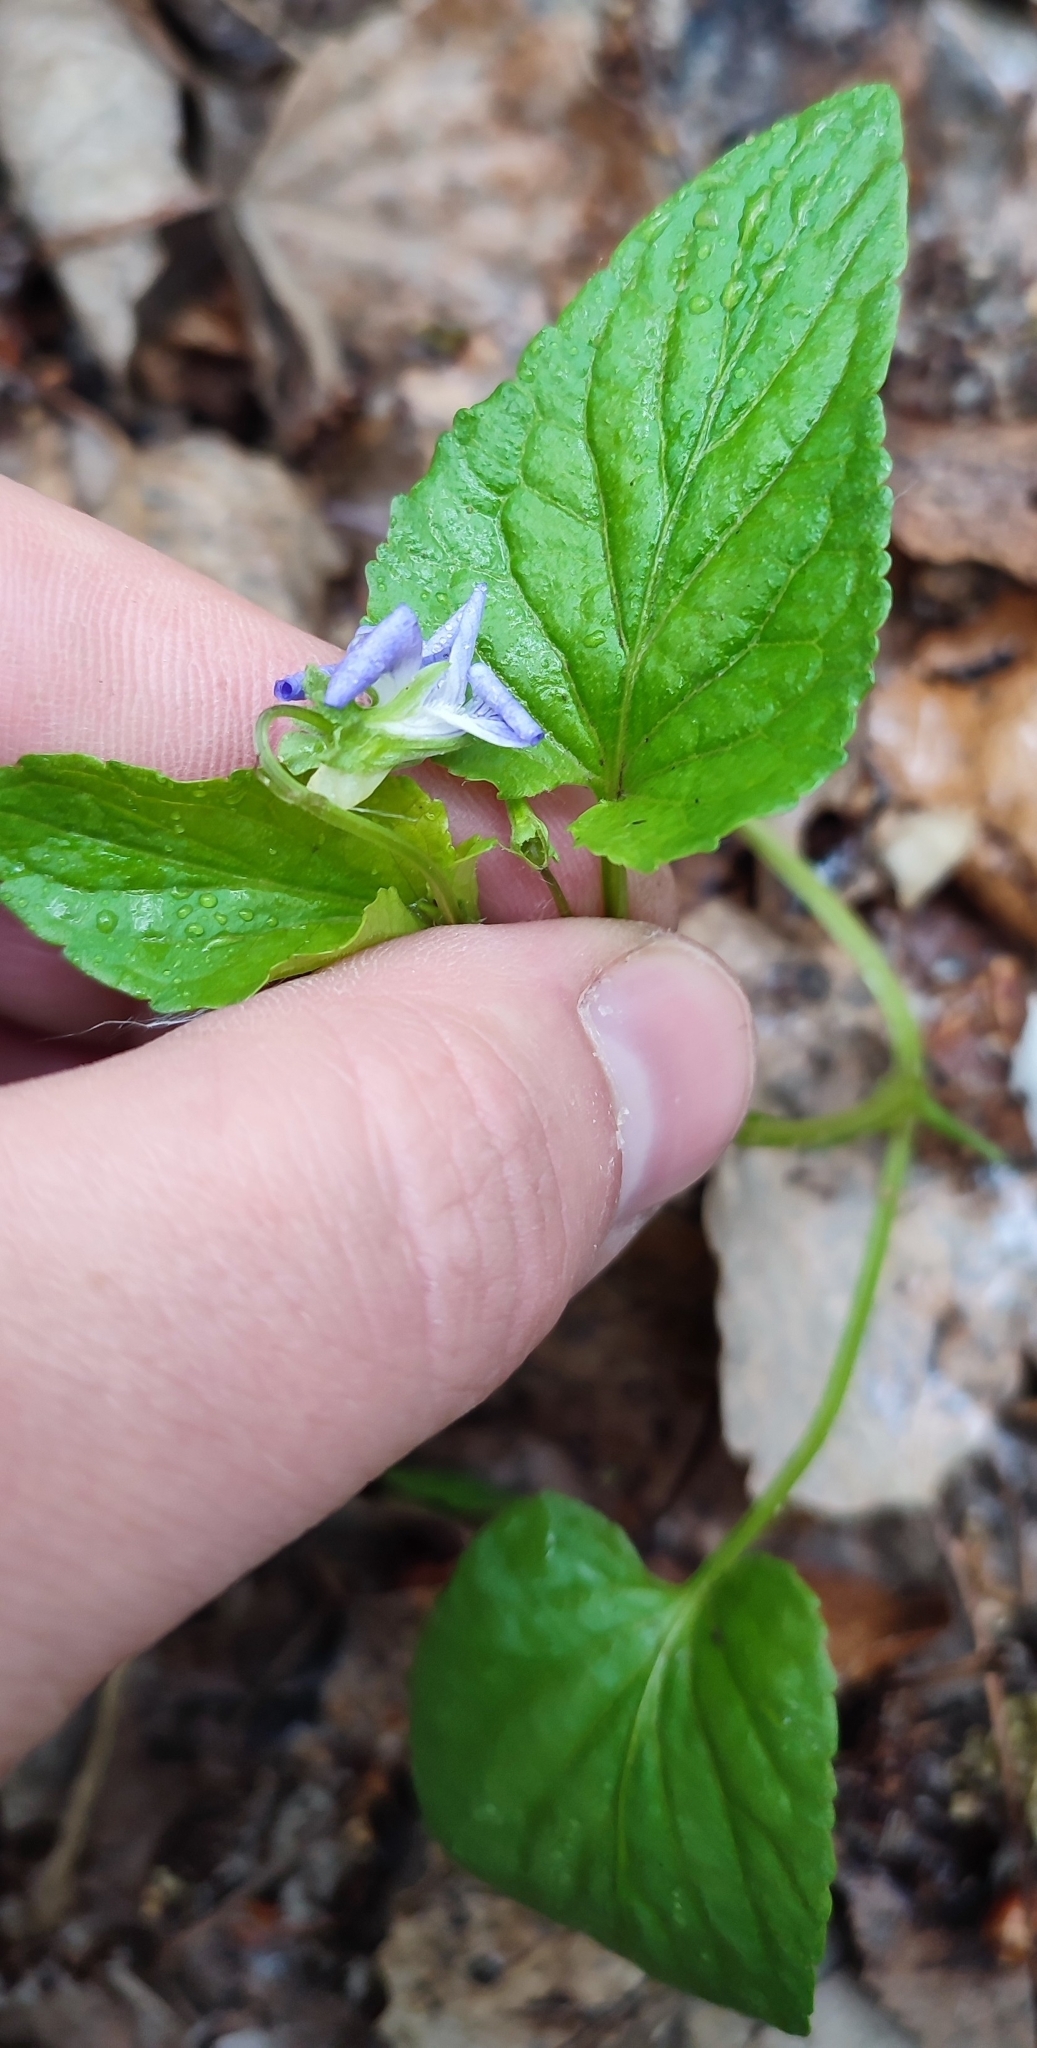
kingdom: Plantae
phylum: Tracheophyta
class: Magnoliopsida
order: Malpighiales
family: Violaceae
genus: Viola
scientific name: Viola
